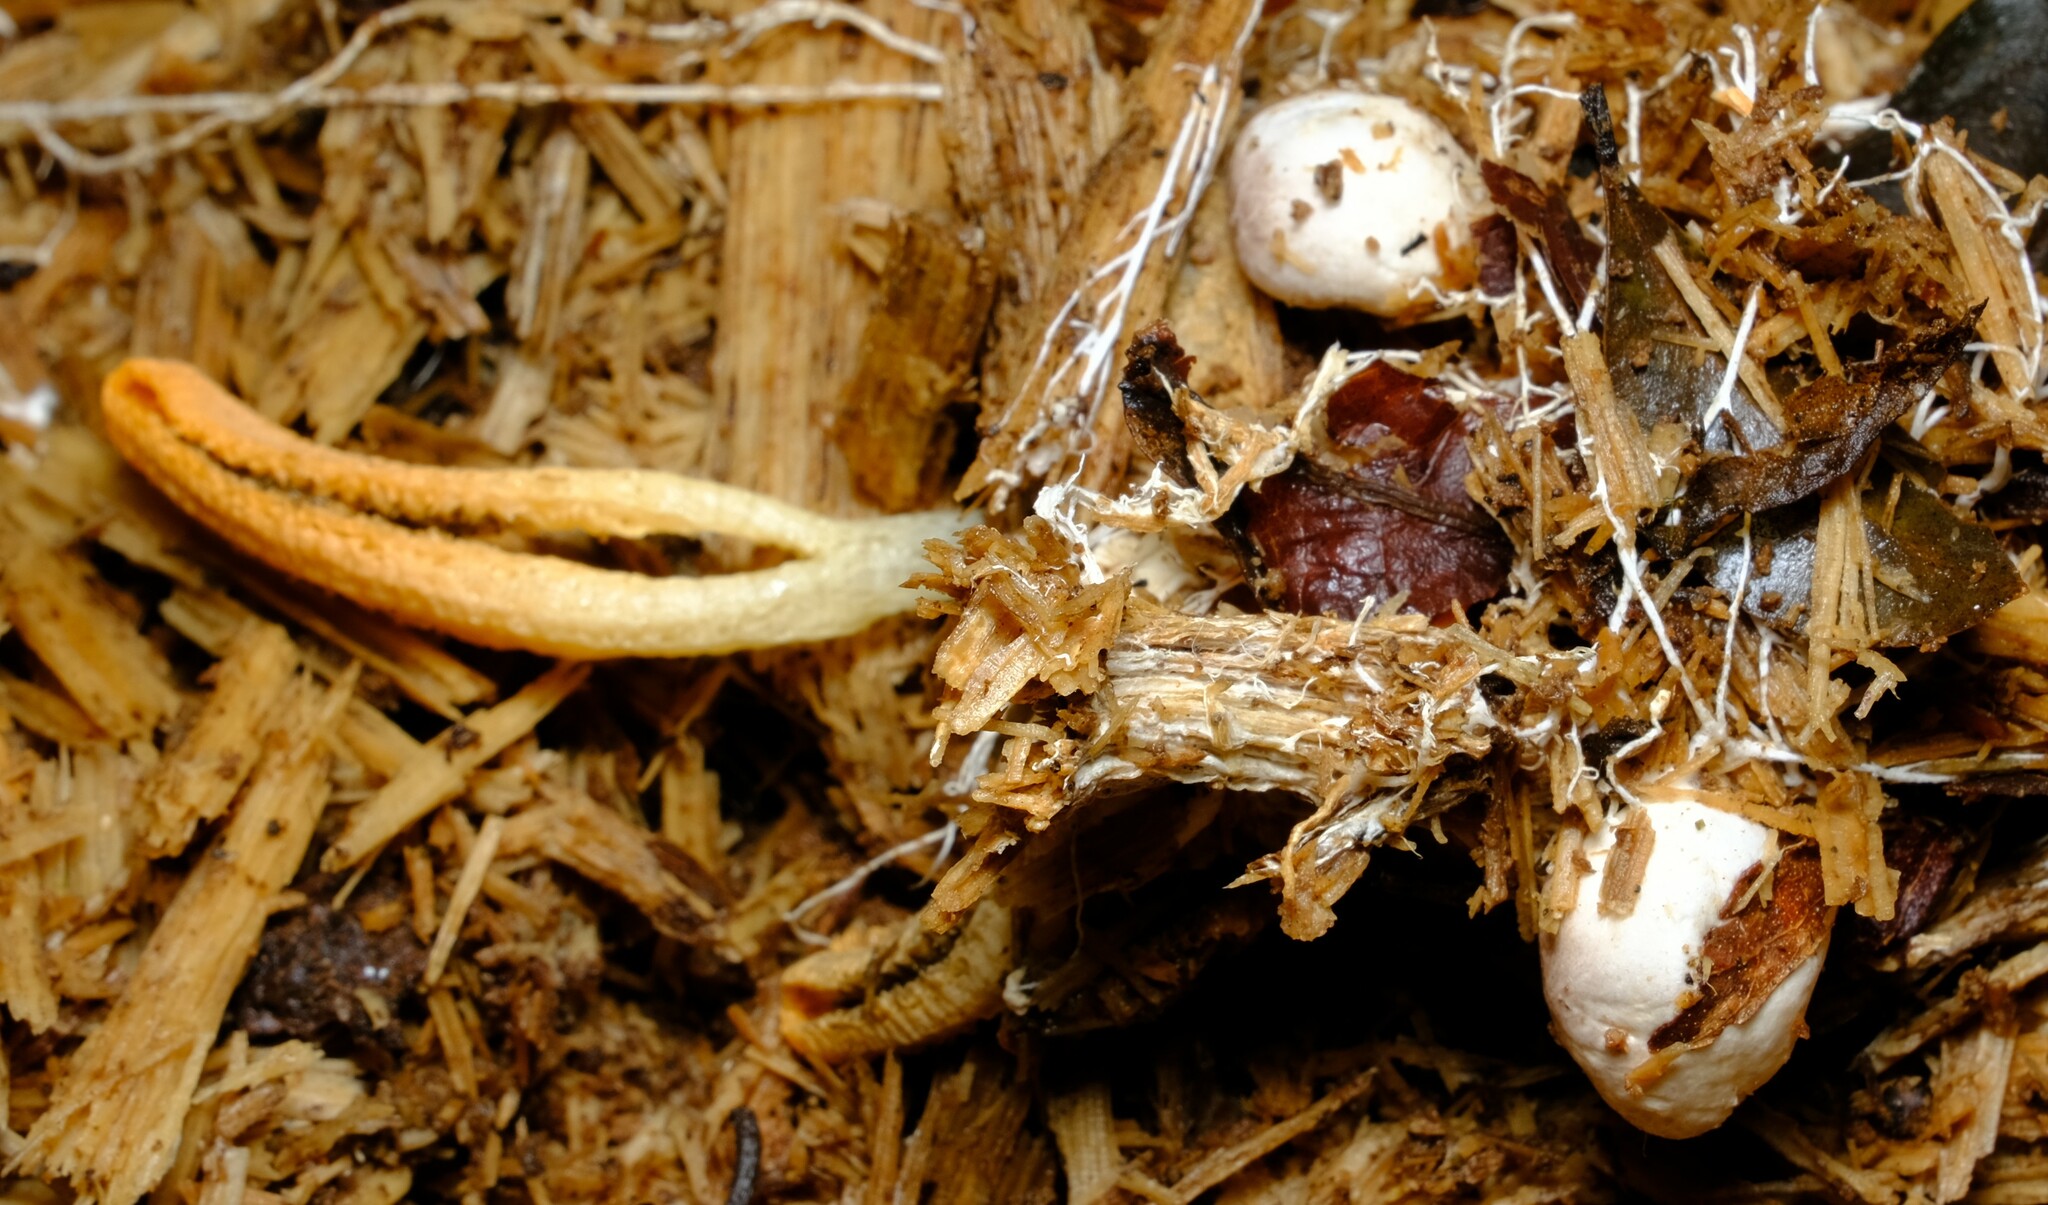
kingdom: Fungi
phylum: Basidiomycota
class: Agaricomycetes
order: Phallales
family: Phallaceae
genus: Pseudocolus
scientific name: Pseudocolus fusiformis
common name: Stinky squid
